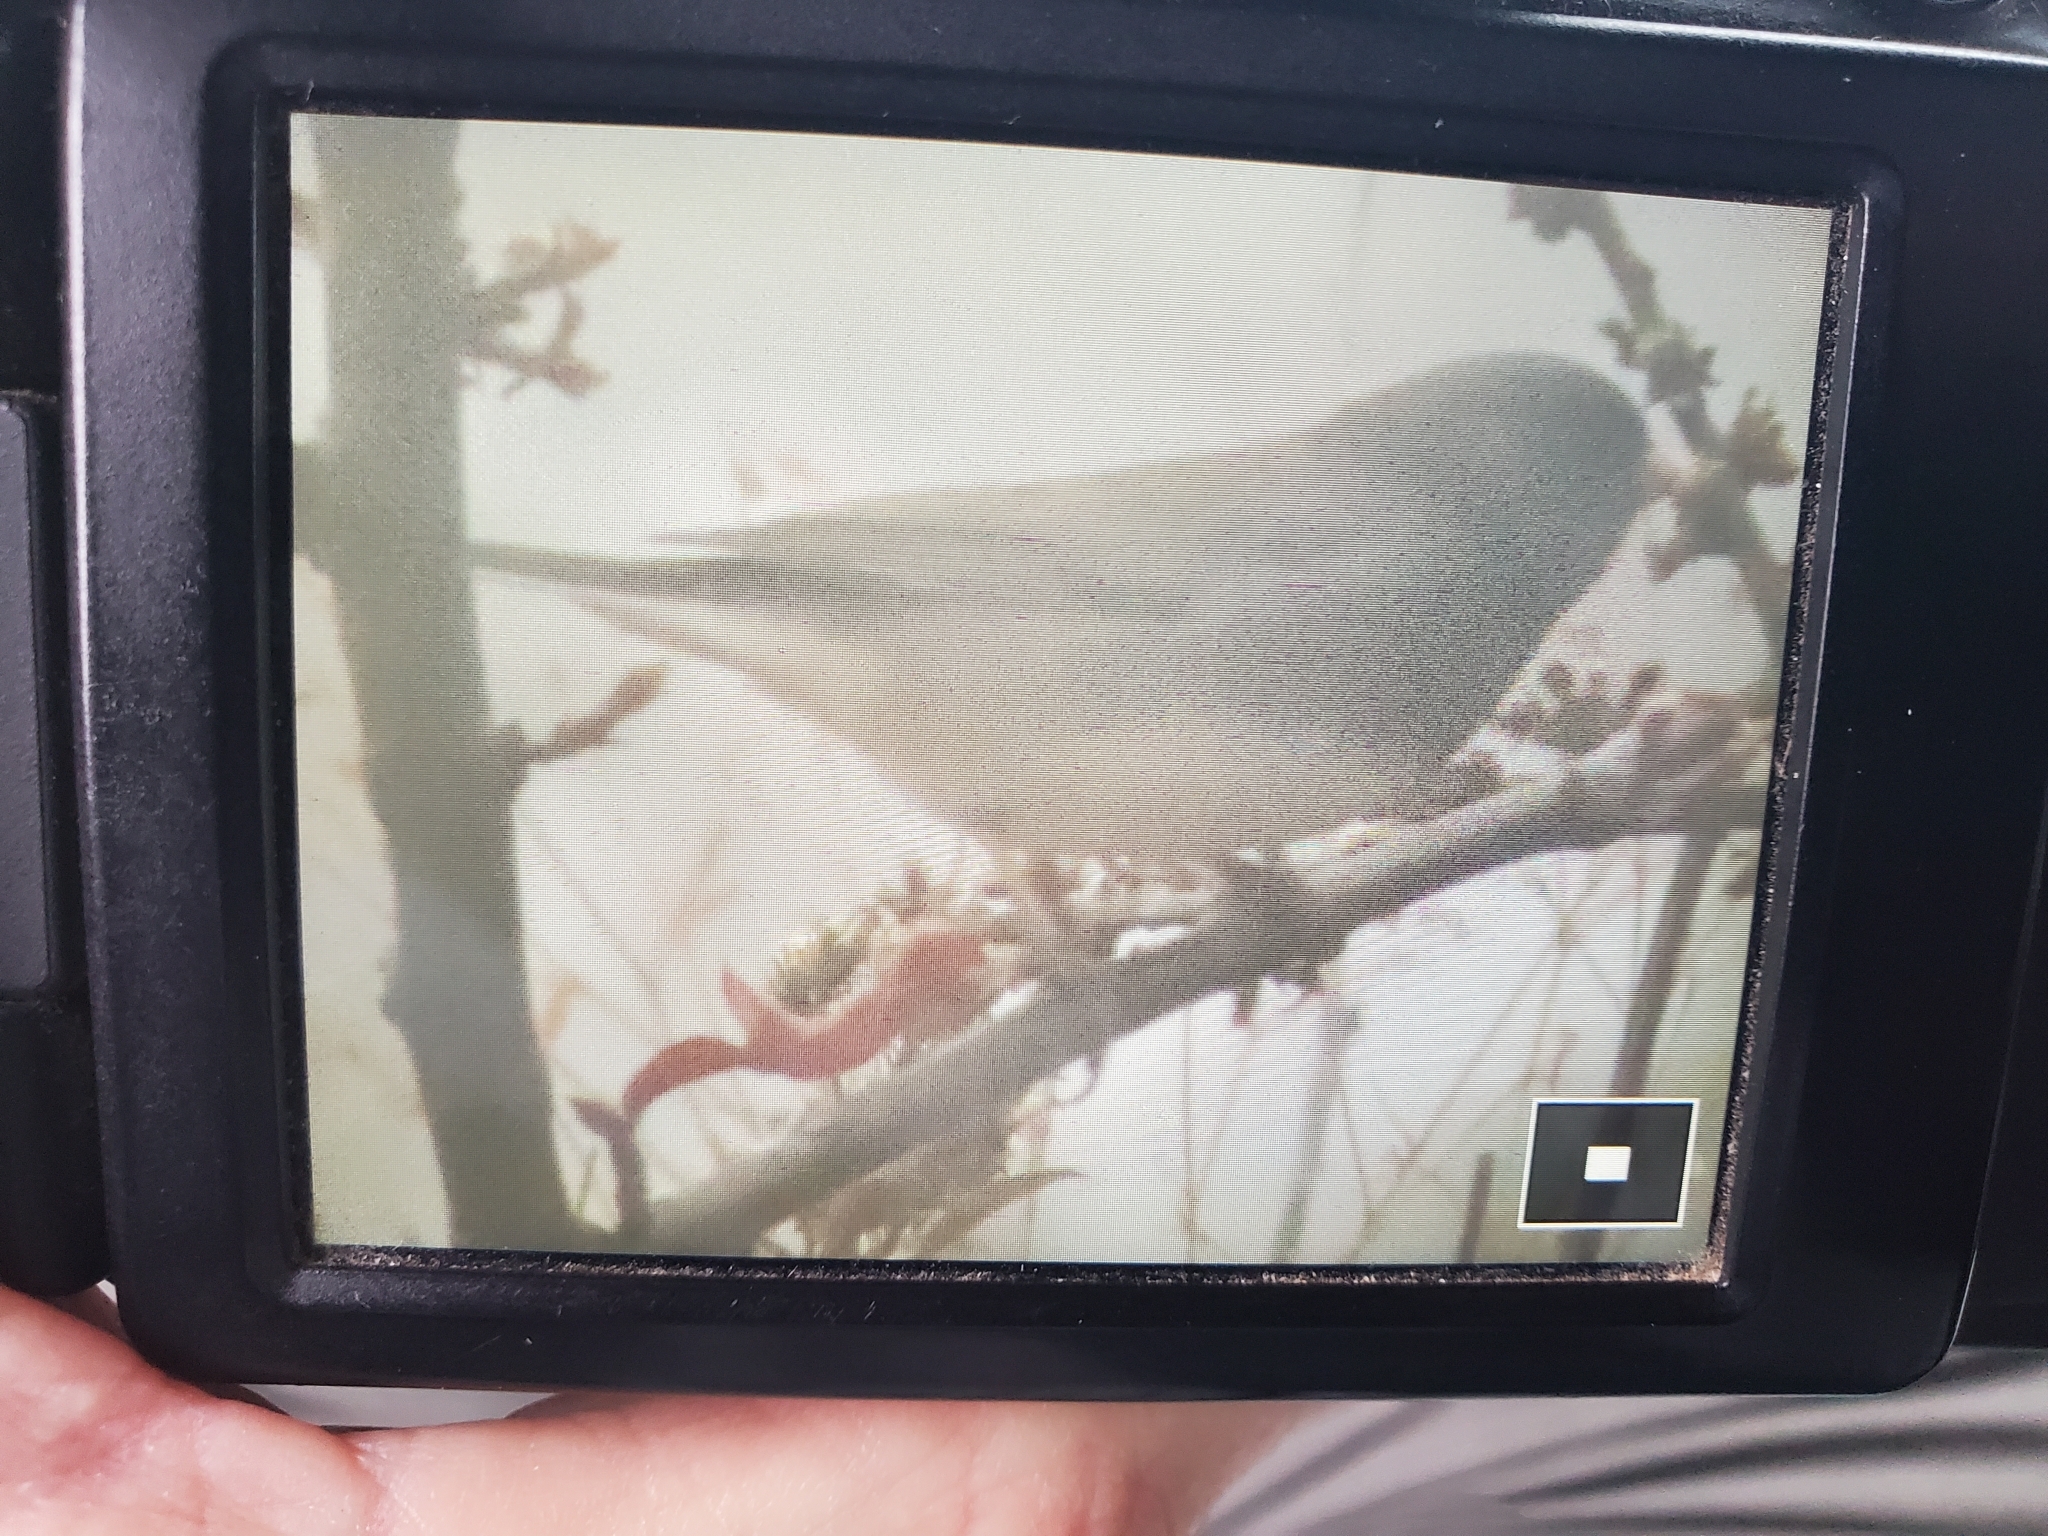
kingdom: Animalia
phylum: Chordata
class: Aves
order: Passeriformes
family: Passerellidae
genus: Junco
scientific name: Junco hyemalis
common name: Dark-eyed junco
